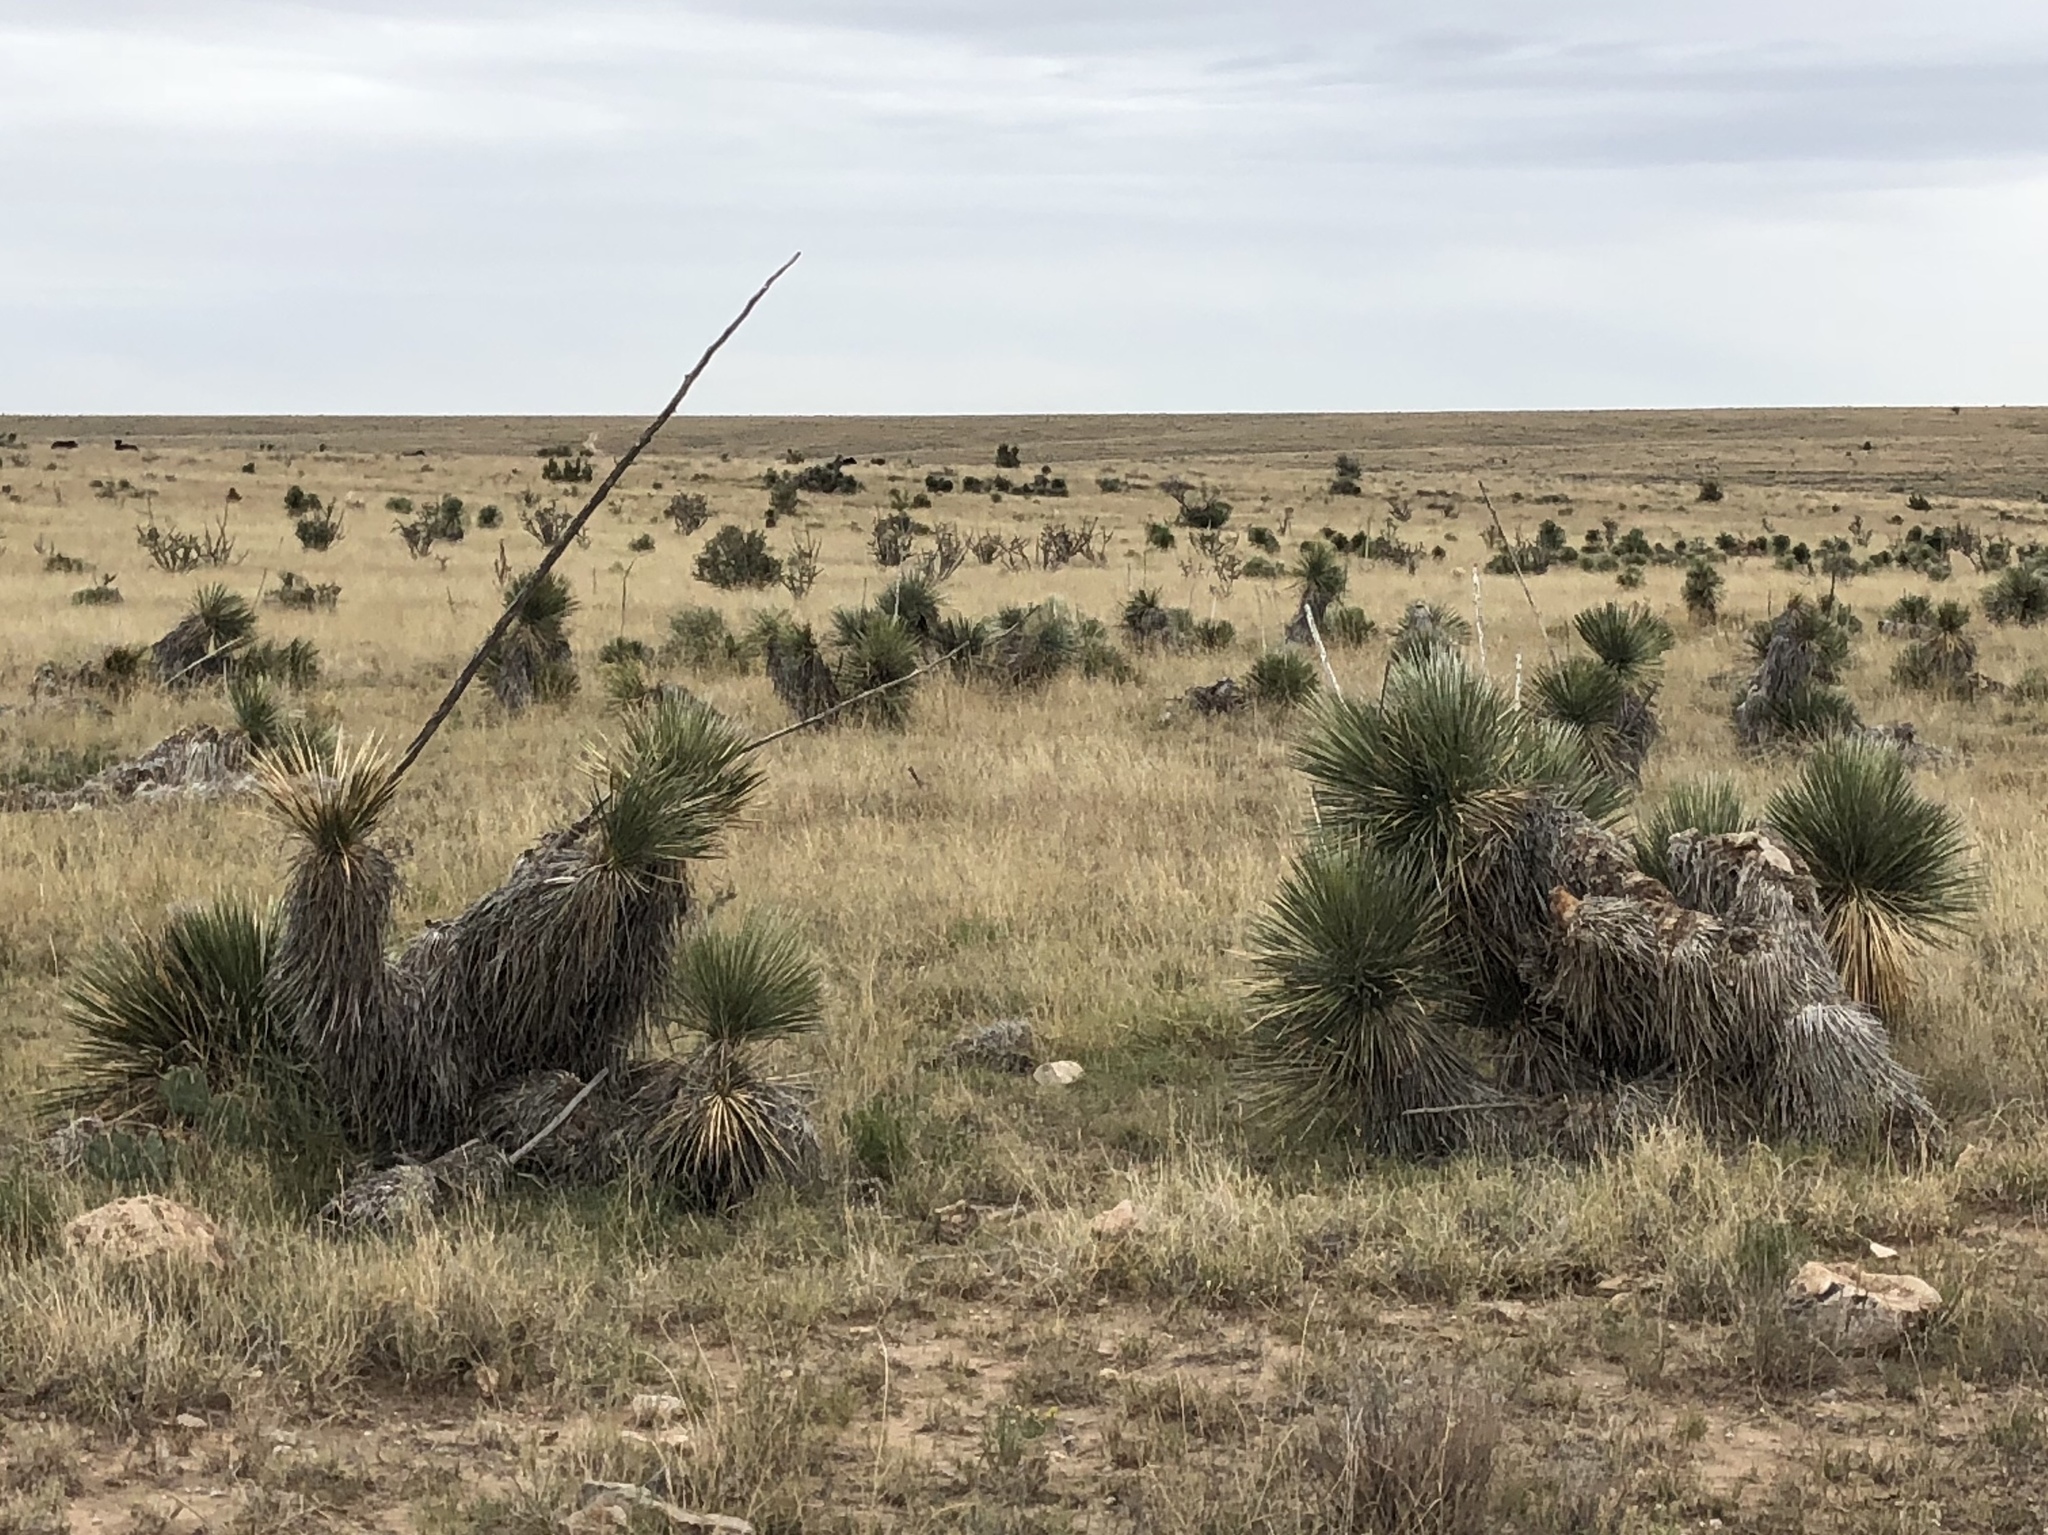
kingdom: Plantae
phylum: Tracheophyta
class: Liliopsida
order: Asparagales
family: Asparagaceae
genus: Yucca
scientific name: Yucca elata
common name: Palmella
